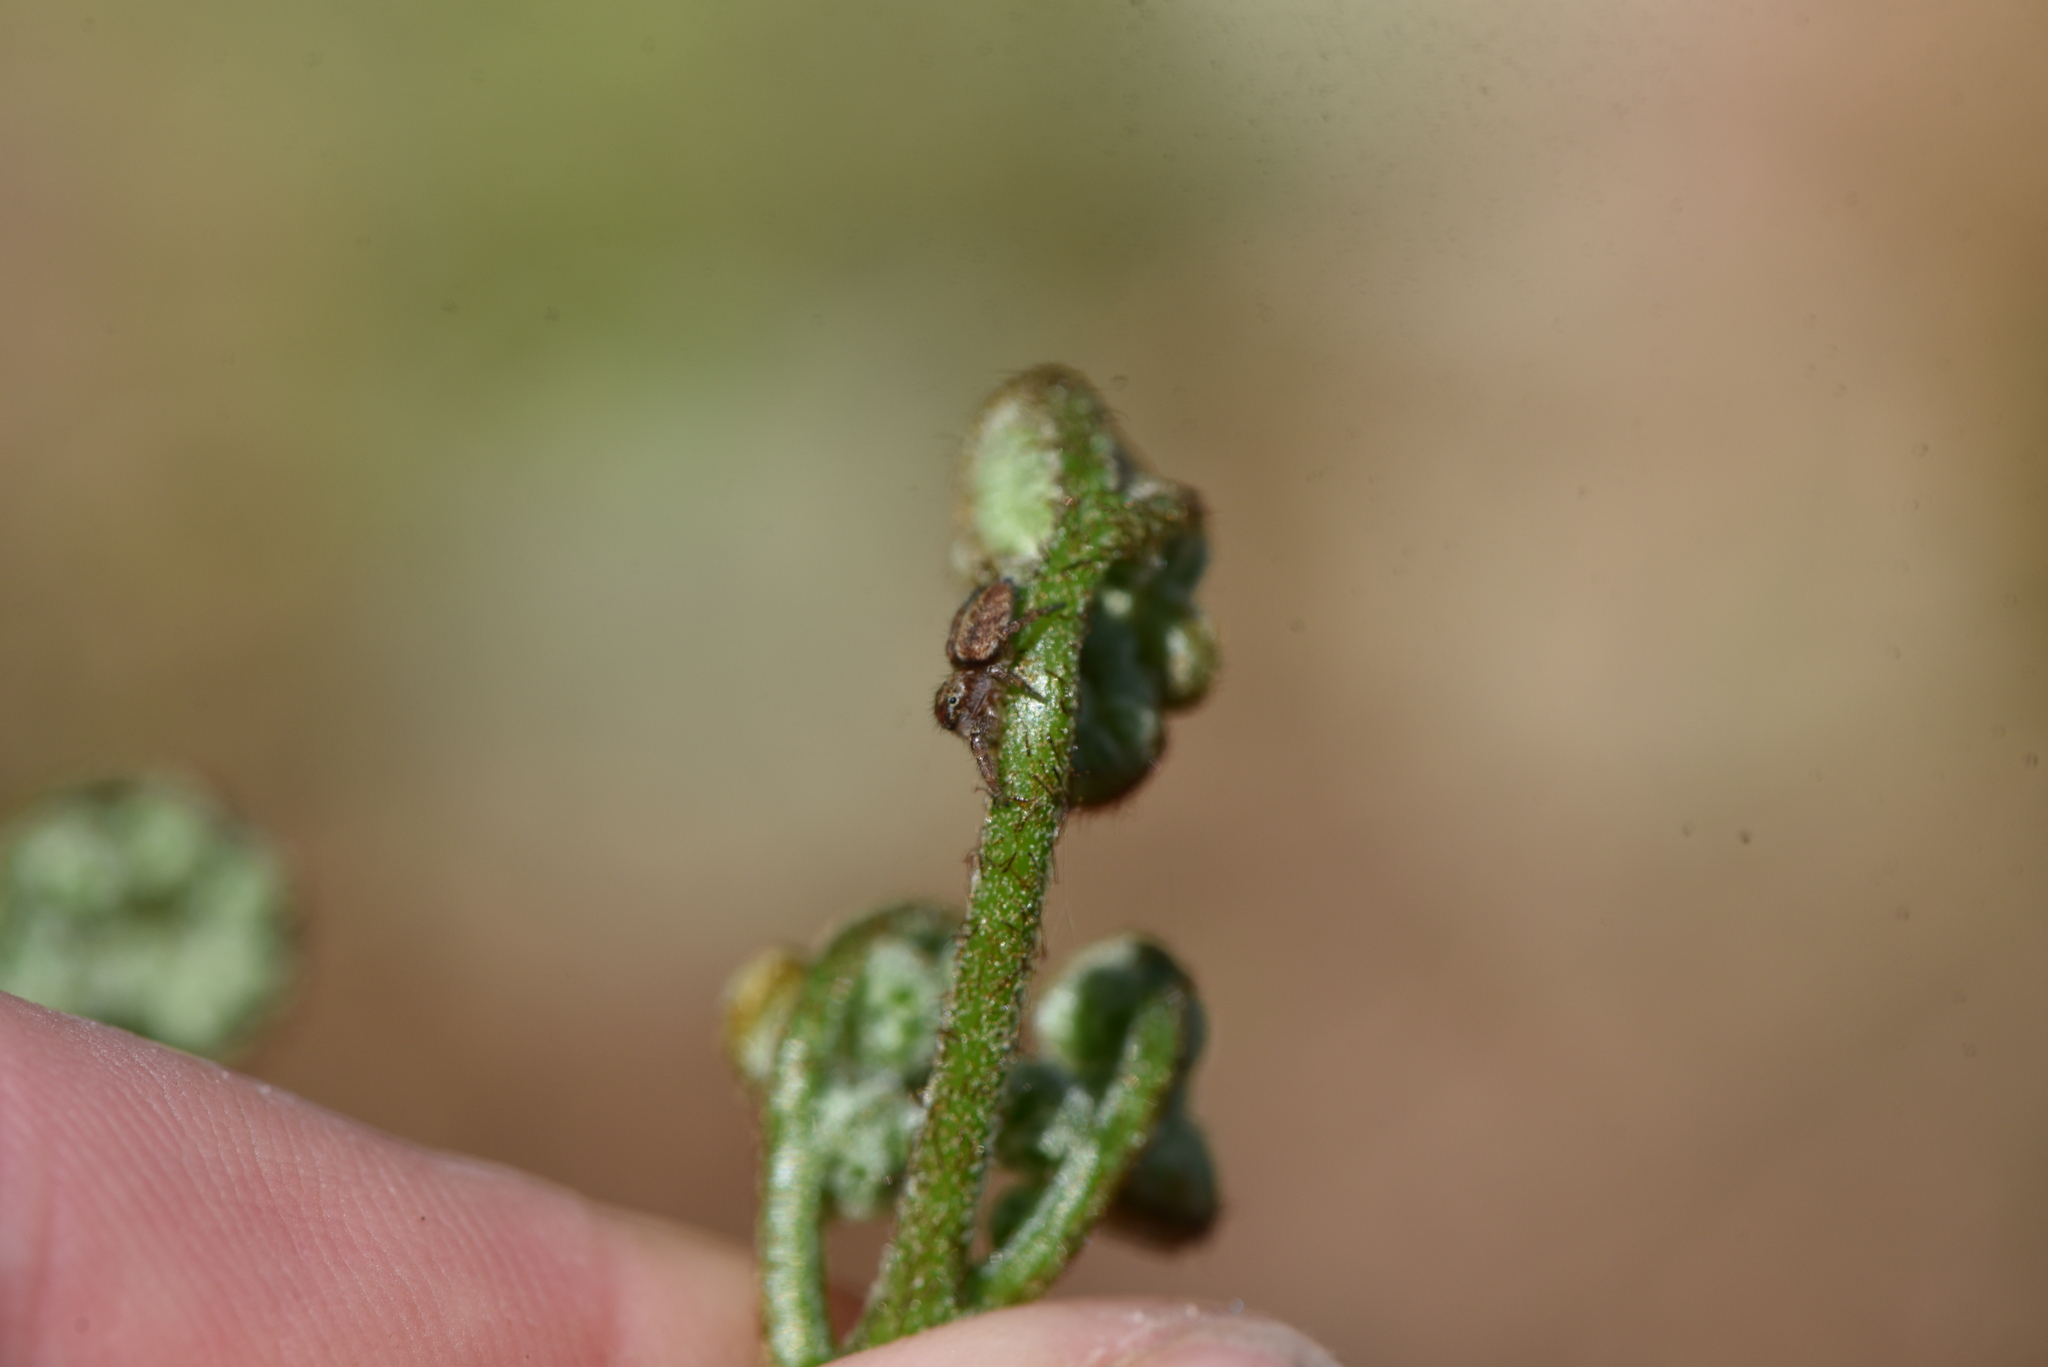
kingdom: Animalia
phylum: Arthropoda
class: Arachnida
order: Araneae
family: Salticidae
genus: Phanias
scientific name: Phanias albeolus
